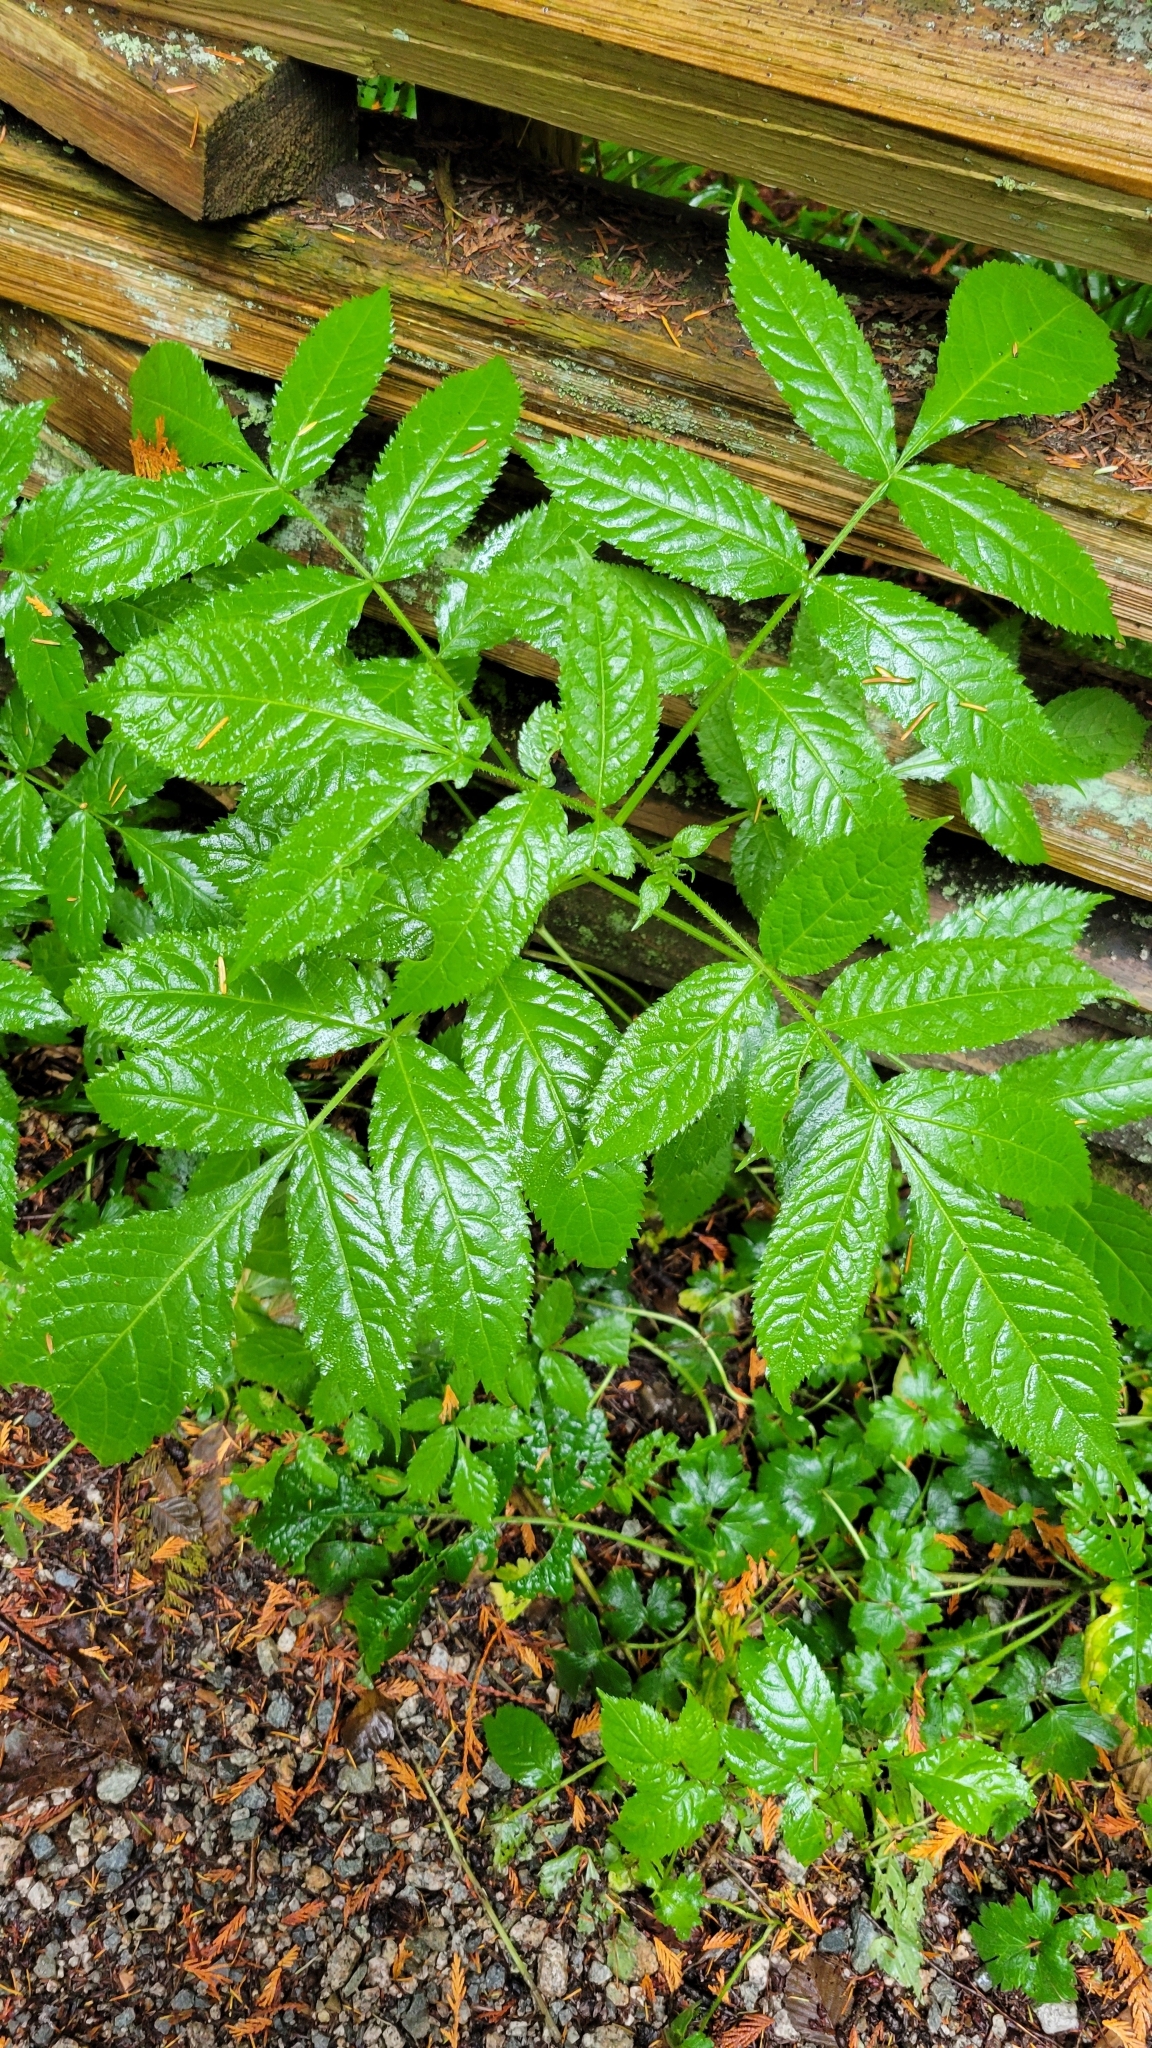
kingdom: Plantae
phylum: Tracheophyta
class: Magnoliopsida
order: Dipsacales
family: Viburnaceae
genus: Sambucus
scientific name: Sambucus racemosa
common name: Red-berried elder
